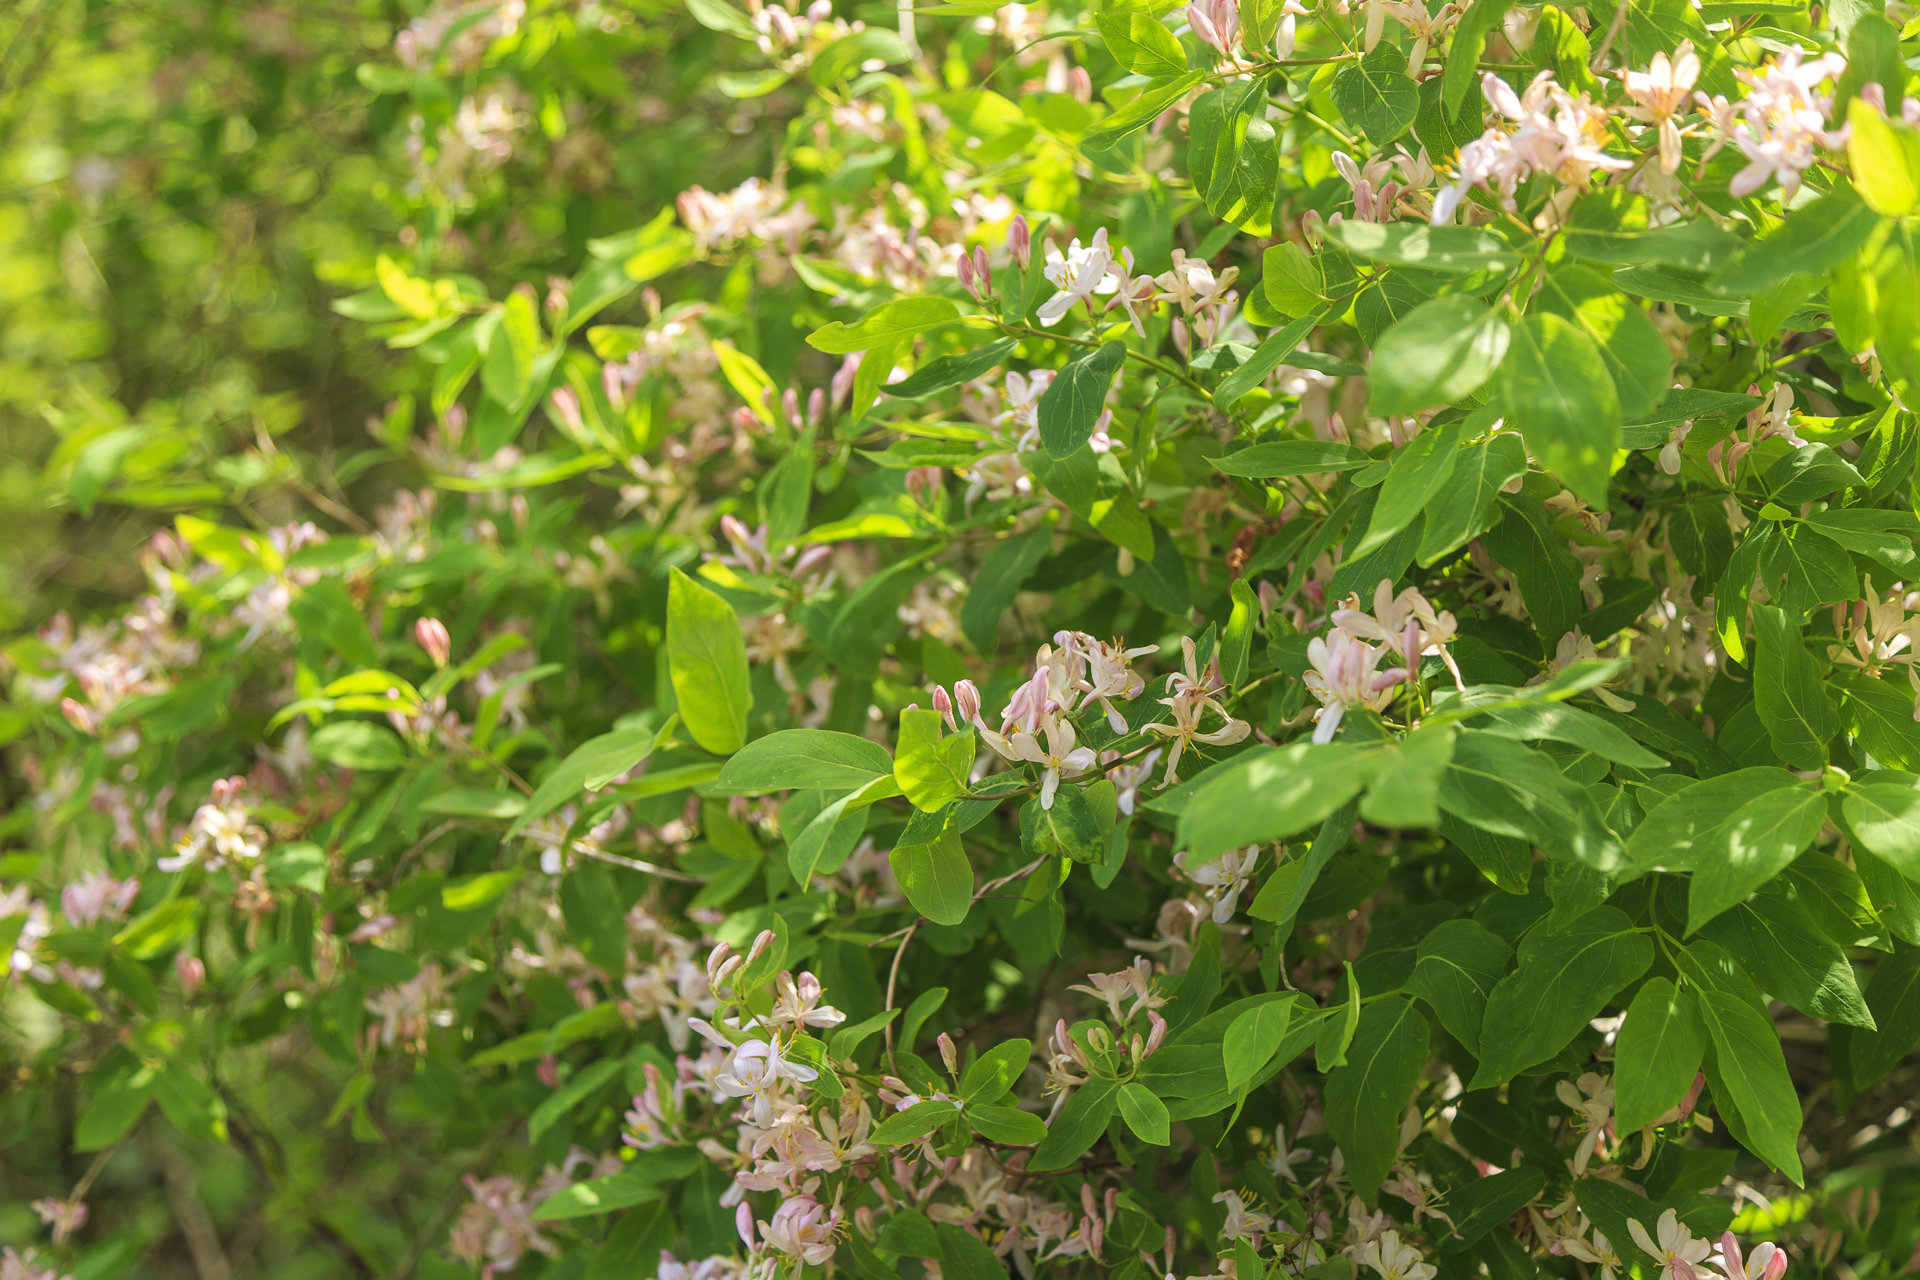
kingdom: Plantae
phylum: Tracheophyta
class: Magnoliopsida
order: Dipsacales
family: Caprifoliaceae
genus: Lonicera
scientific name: Lonicera tatarica
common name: Tatarian honeysuckle
